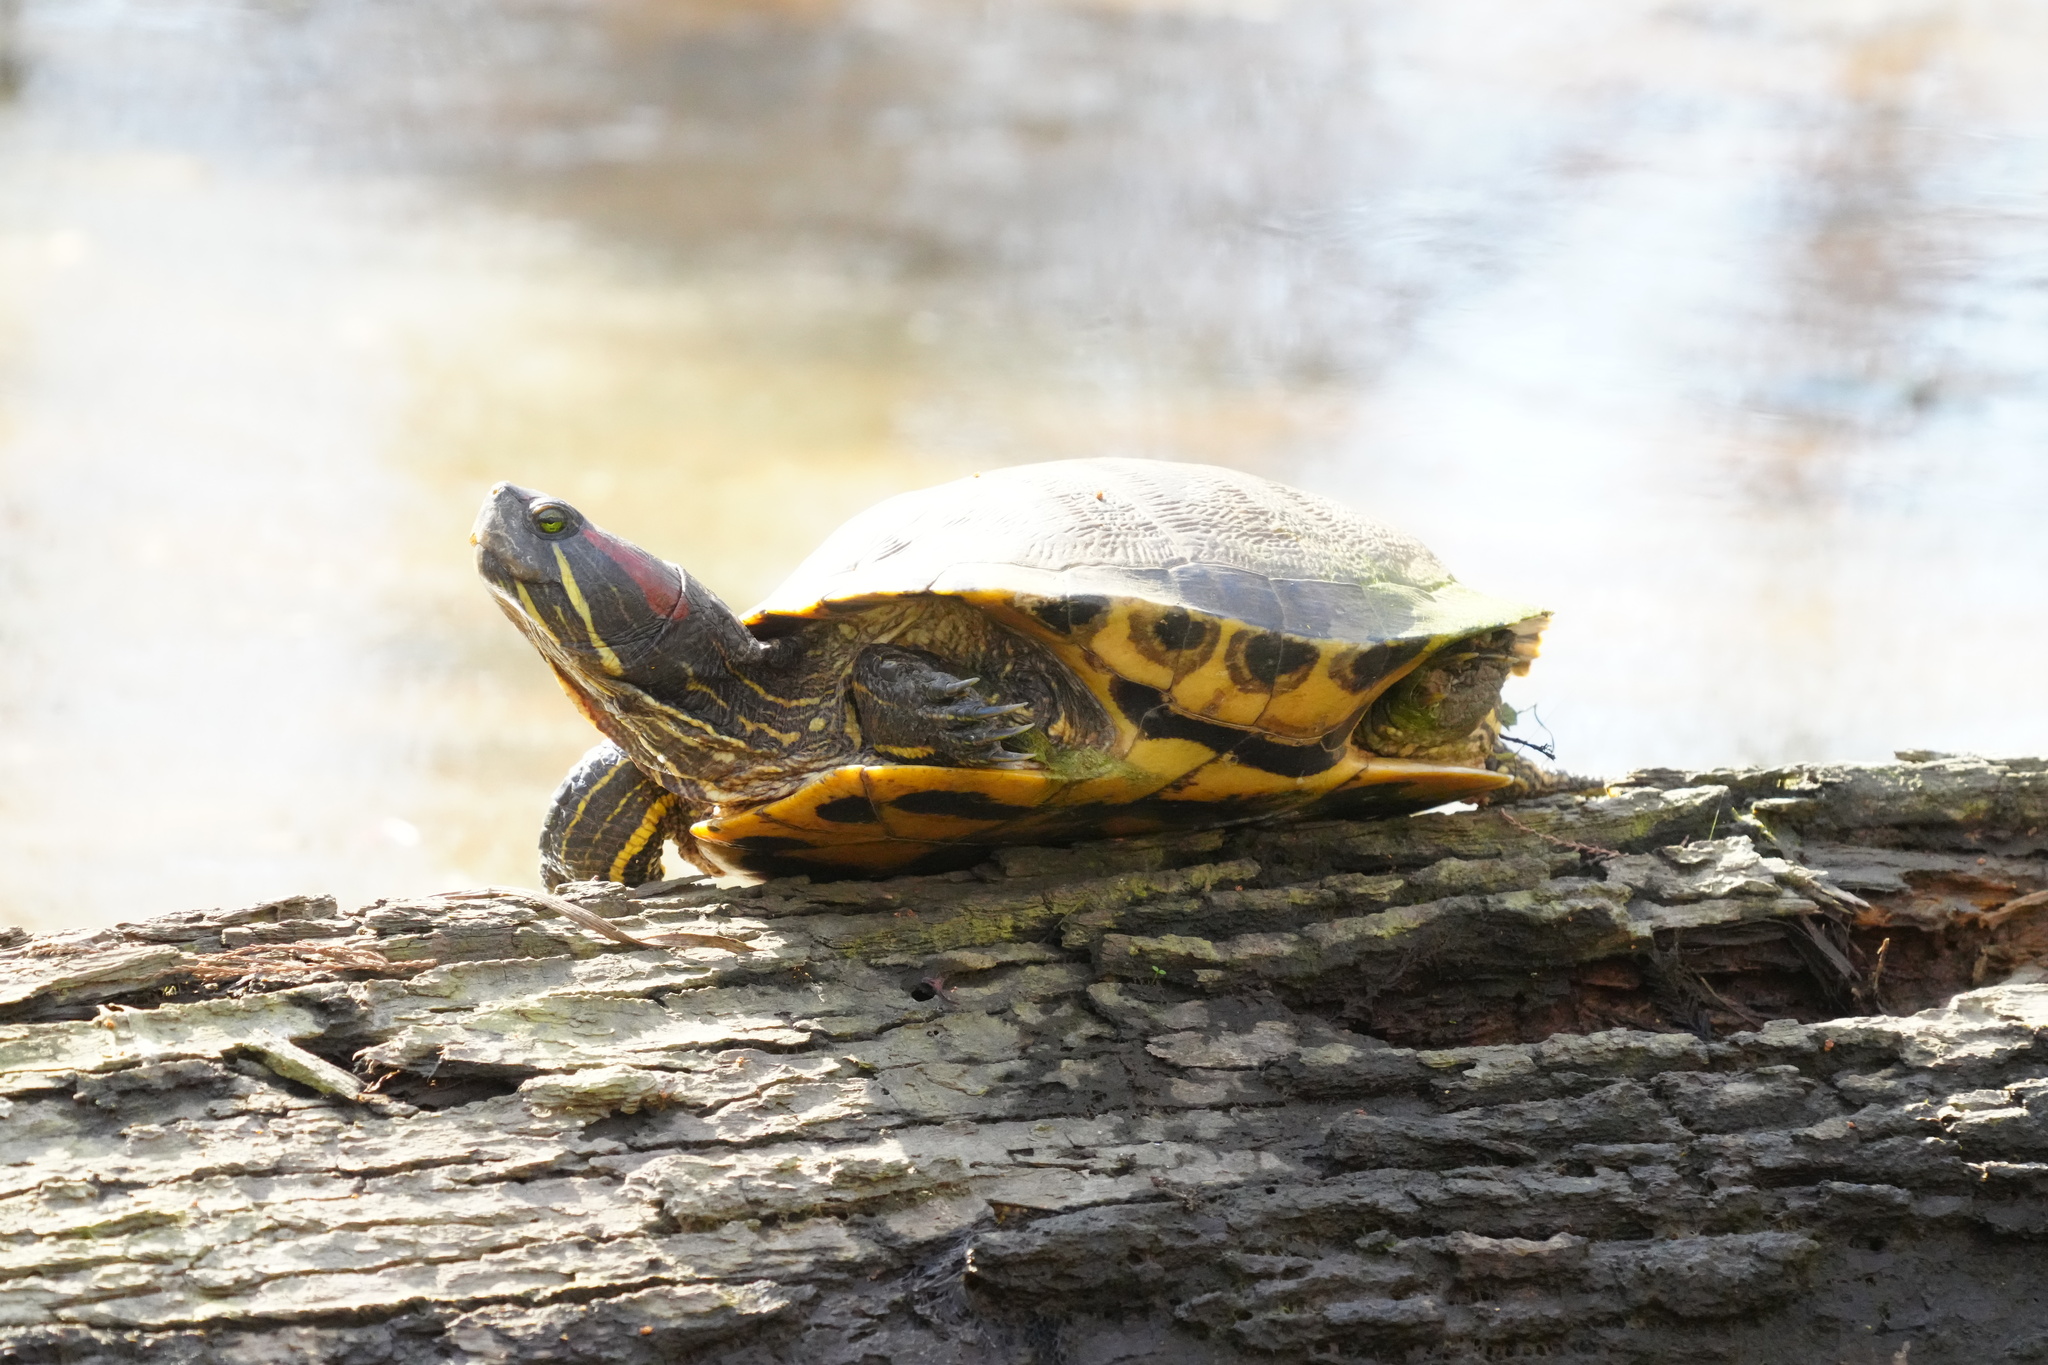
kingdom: Animalia
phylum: Chordata
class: Testudines
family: Emydidae
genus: Trachemys
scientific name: Trachemys scripta
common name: Slider
